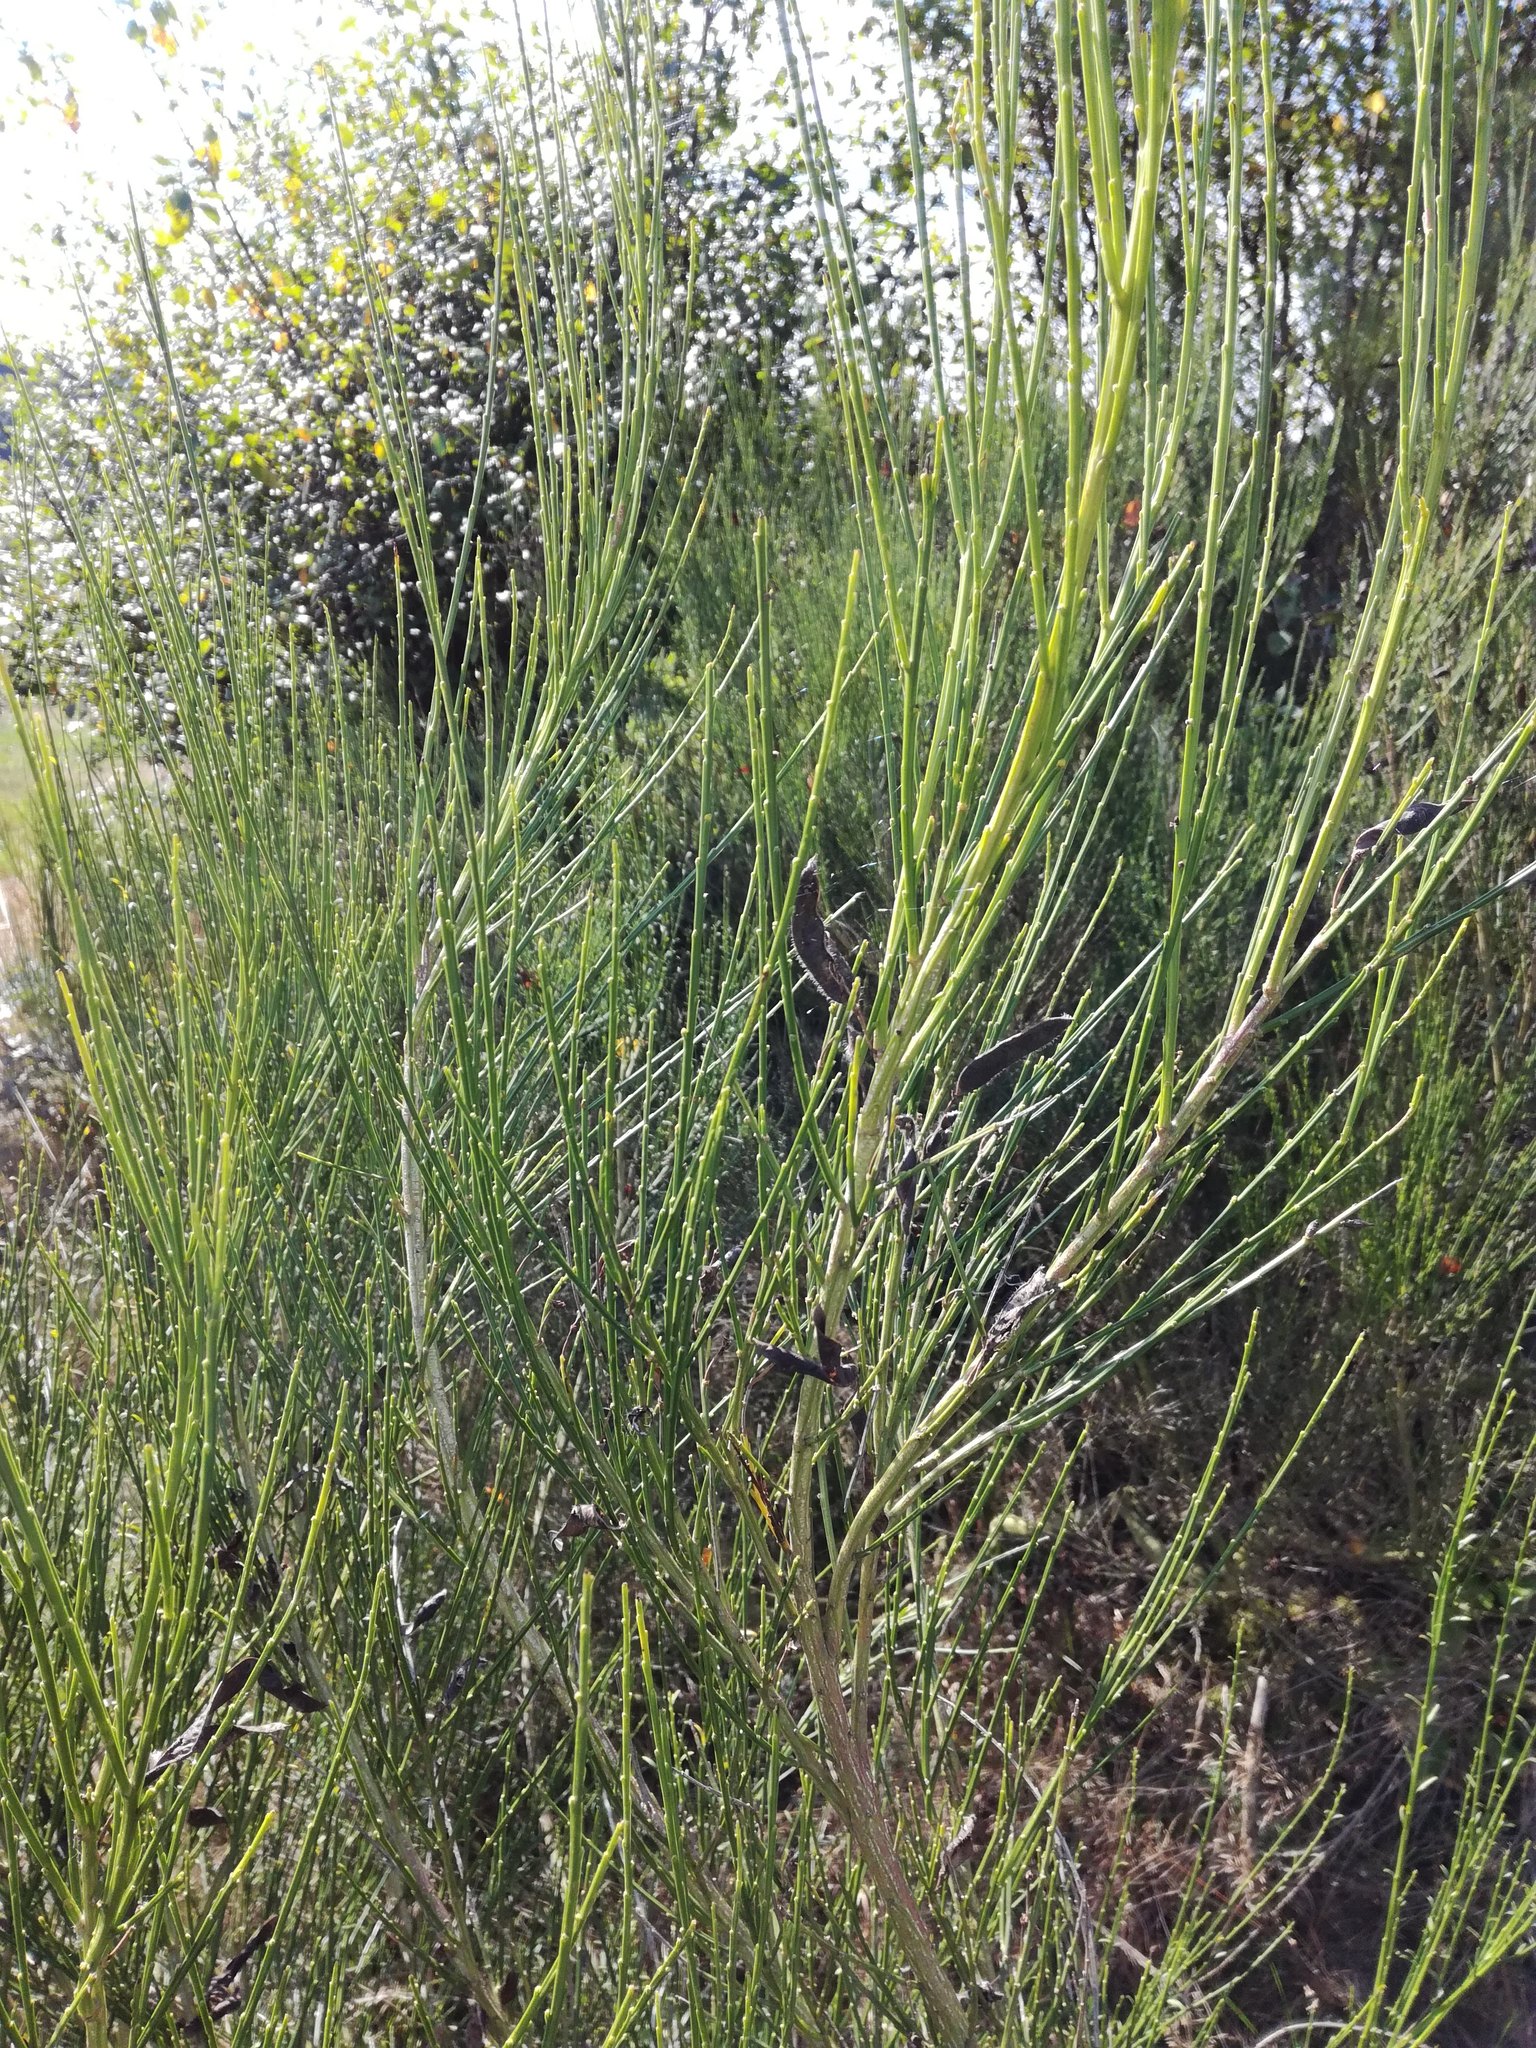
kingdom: Plantae
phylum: Tracheophyta
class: Magnoliopsida
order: Fabales
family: Fabaceae
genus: Cytisus
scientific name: Cytisus scoparius
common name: Scotch broom
